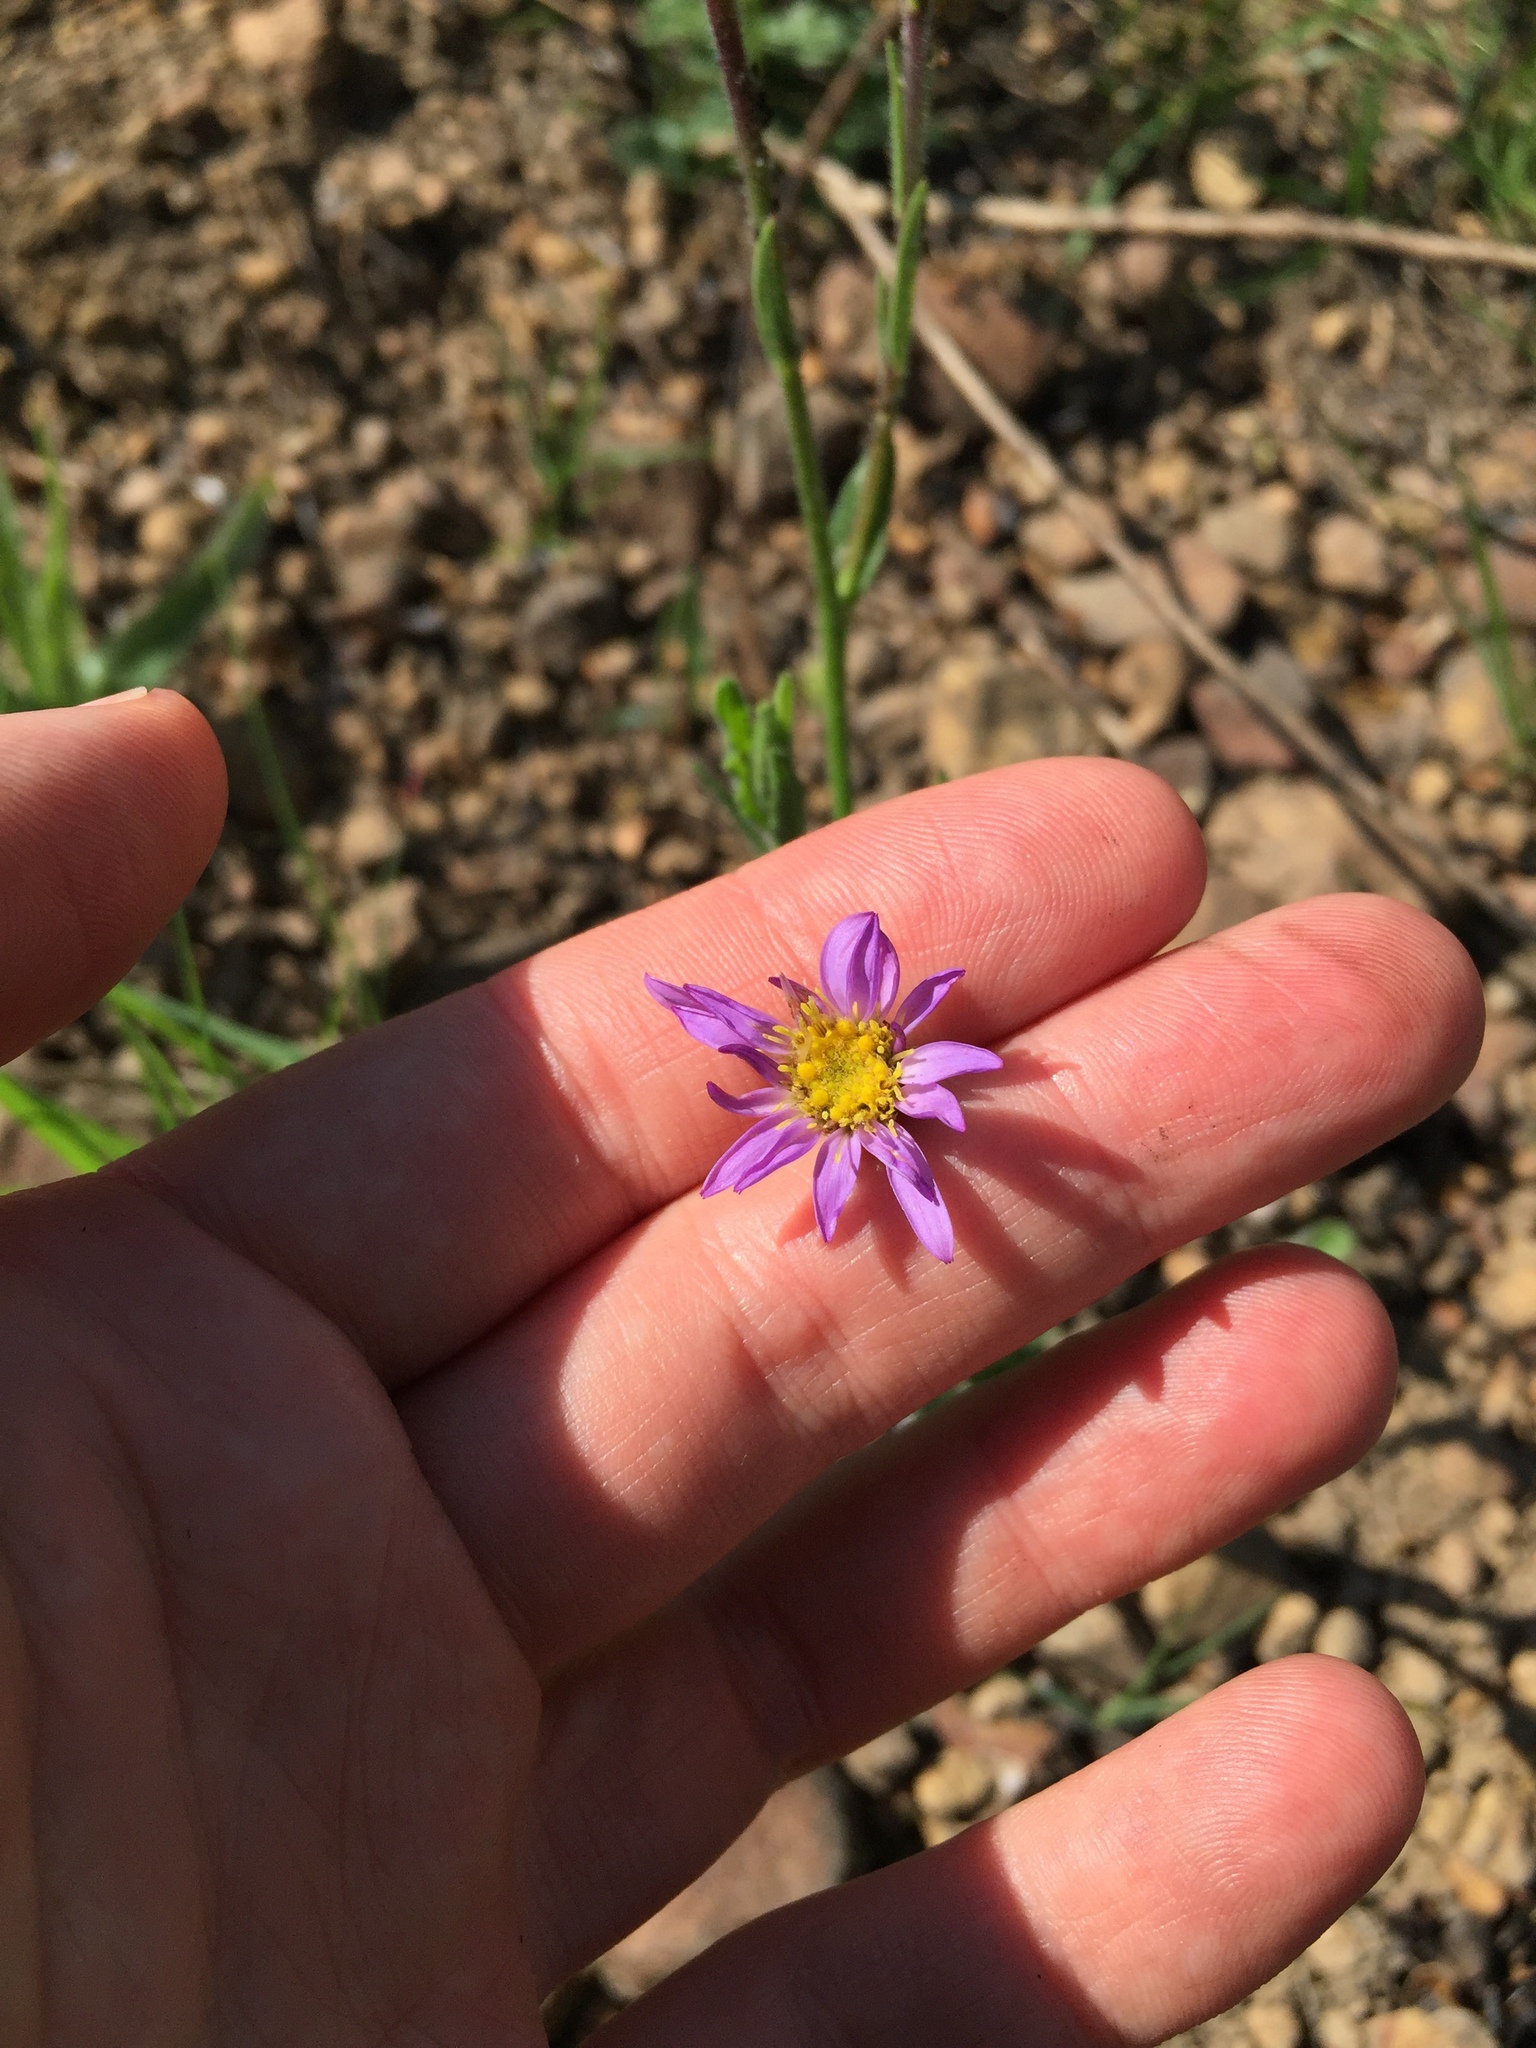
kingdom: Plantae
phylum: Tracheophyta
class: Magnoliopsida
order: Asterales
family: Asteraceae
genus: Afroaster
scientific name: Afroaster hispidus
